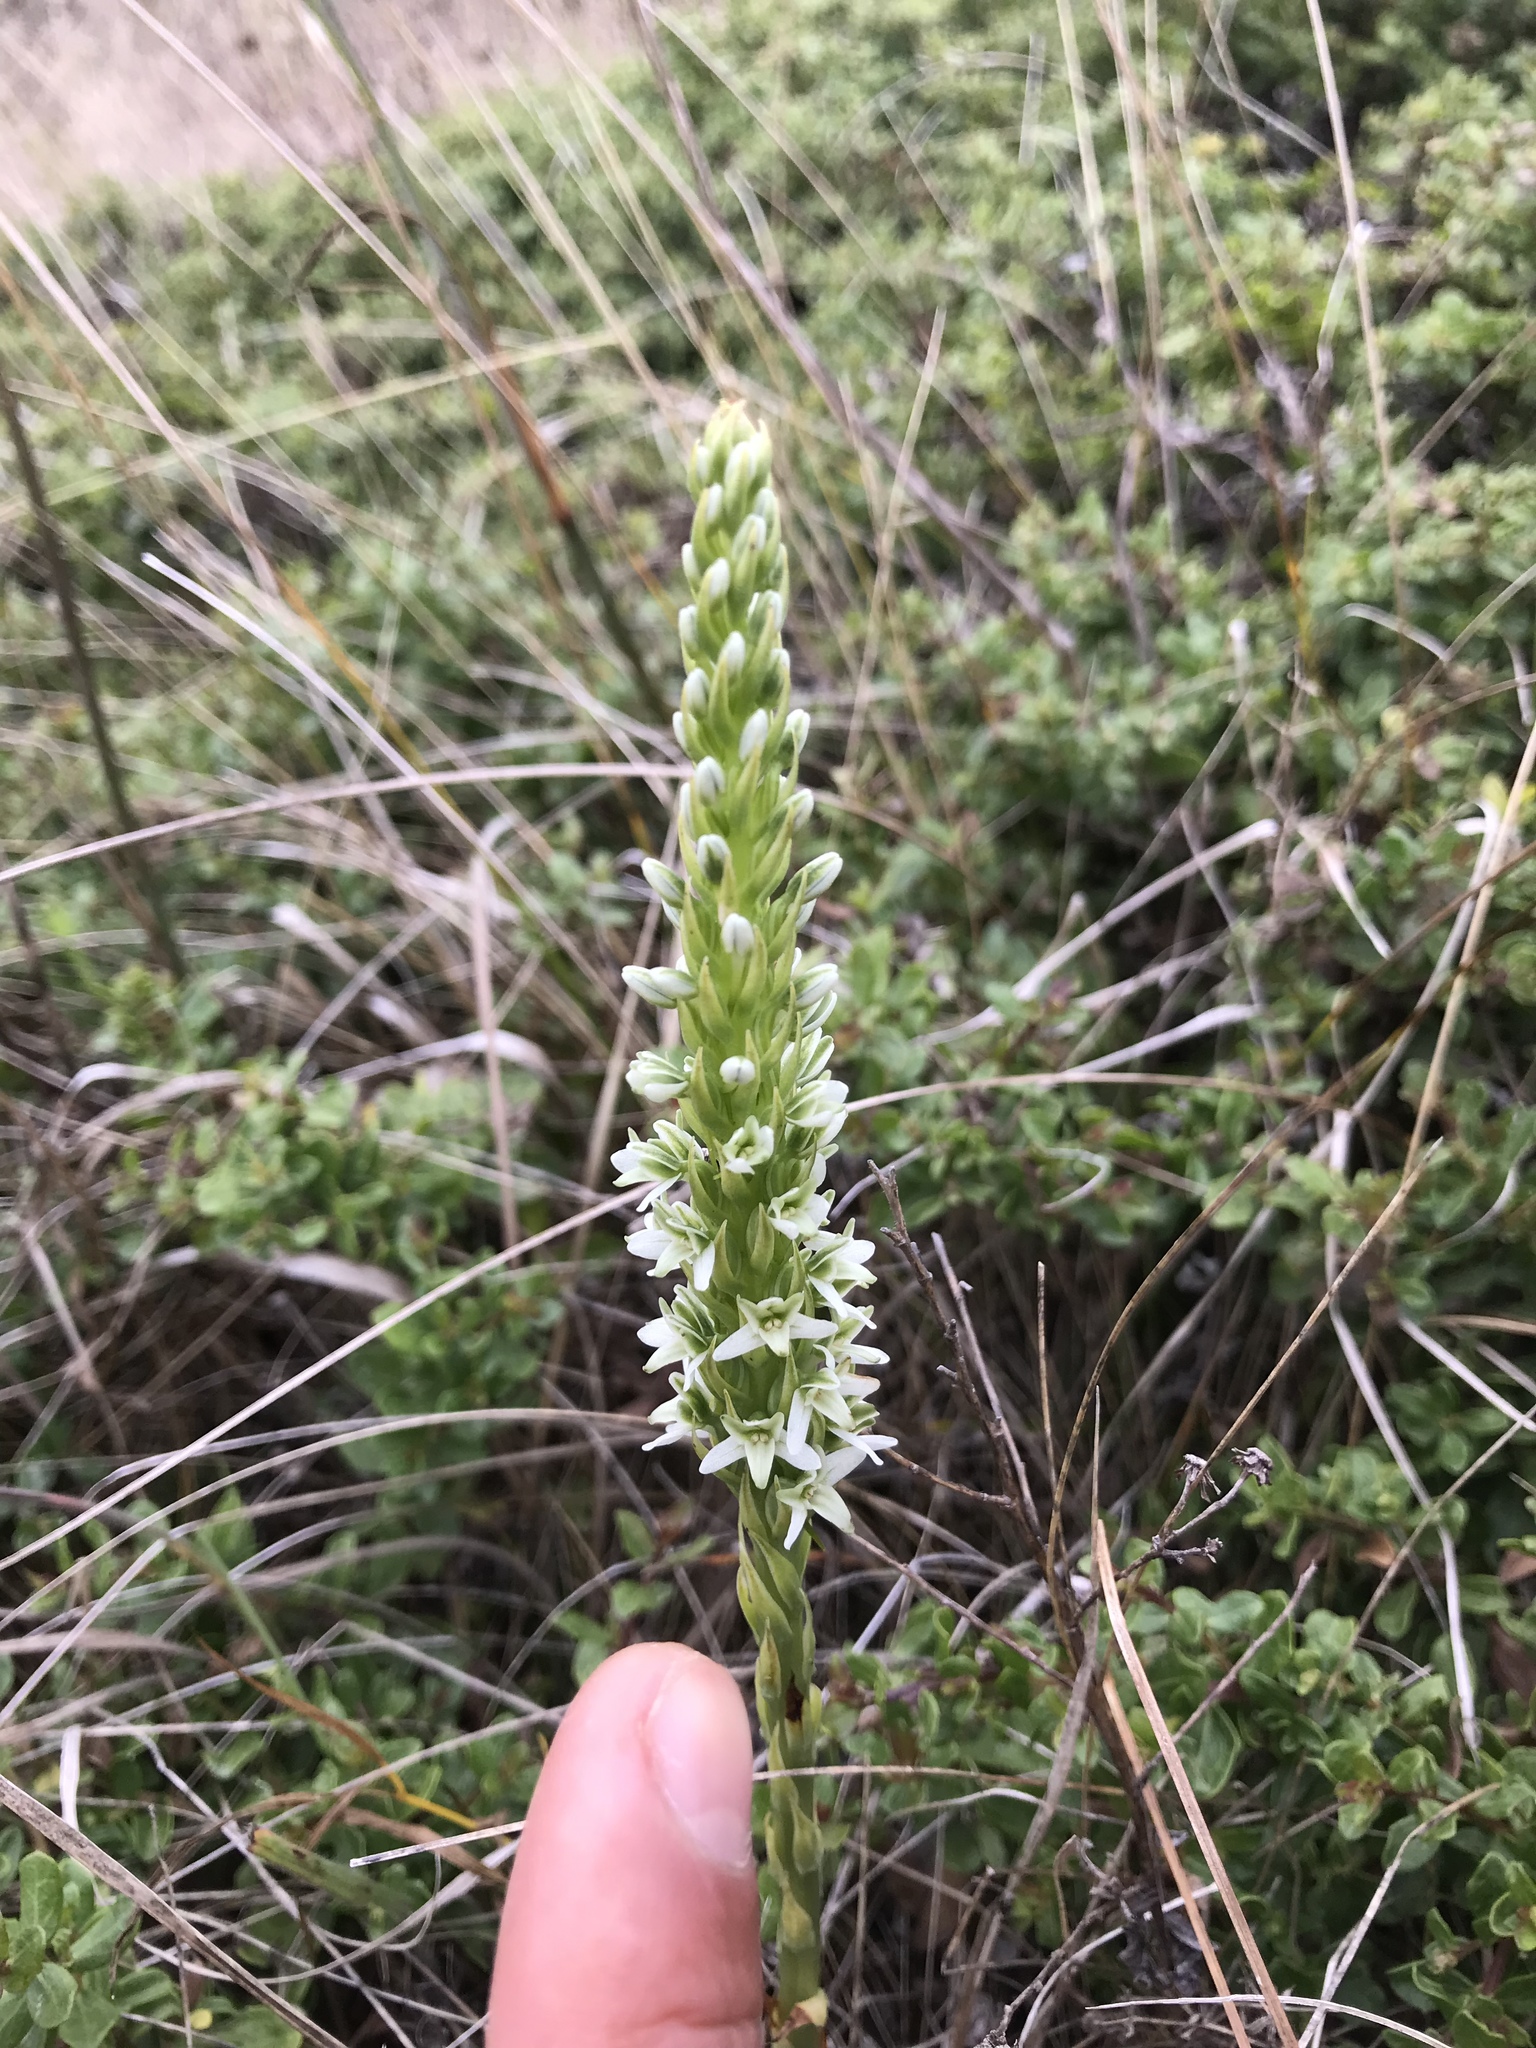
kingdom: Plantae
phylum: Tracheophyta
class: Liliopsida
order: Asparagales
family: Orchidaceae
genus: Platanthera
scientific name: Platanthera elegans
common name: Coast piperia
